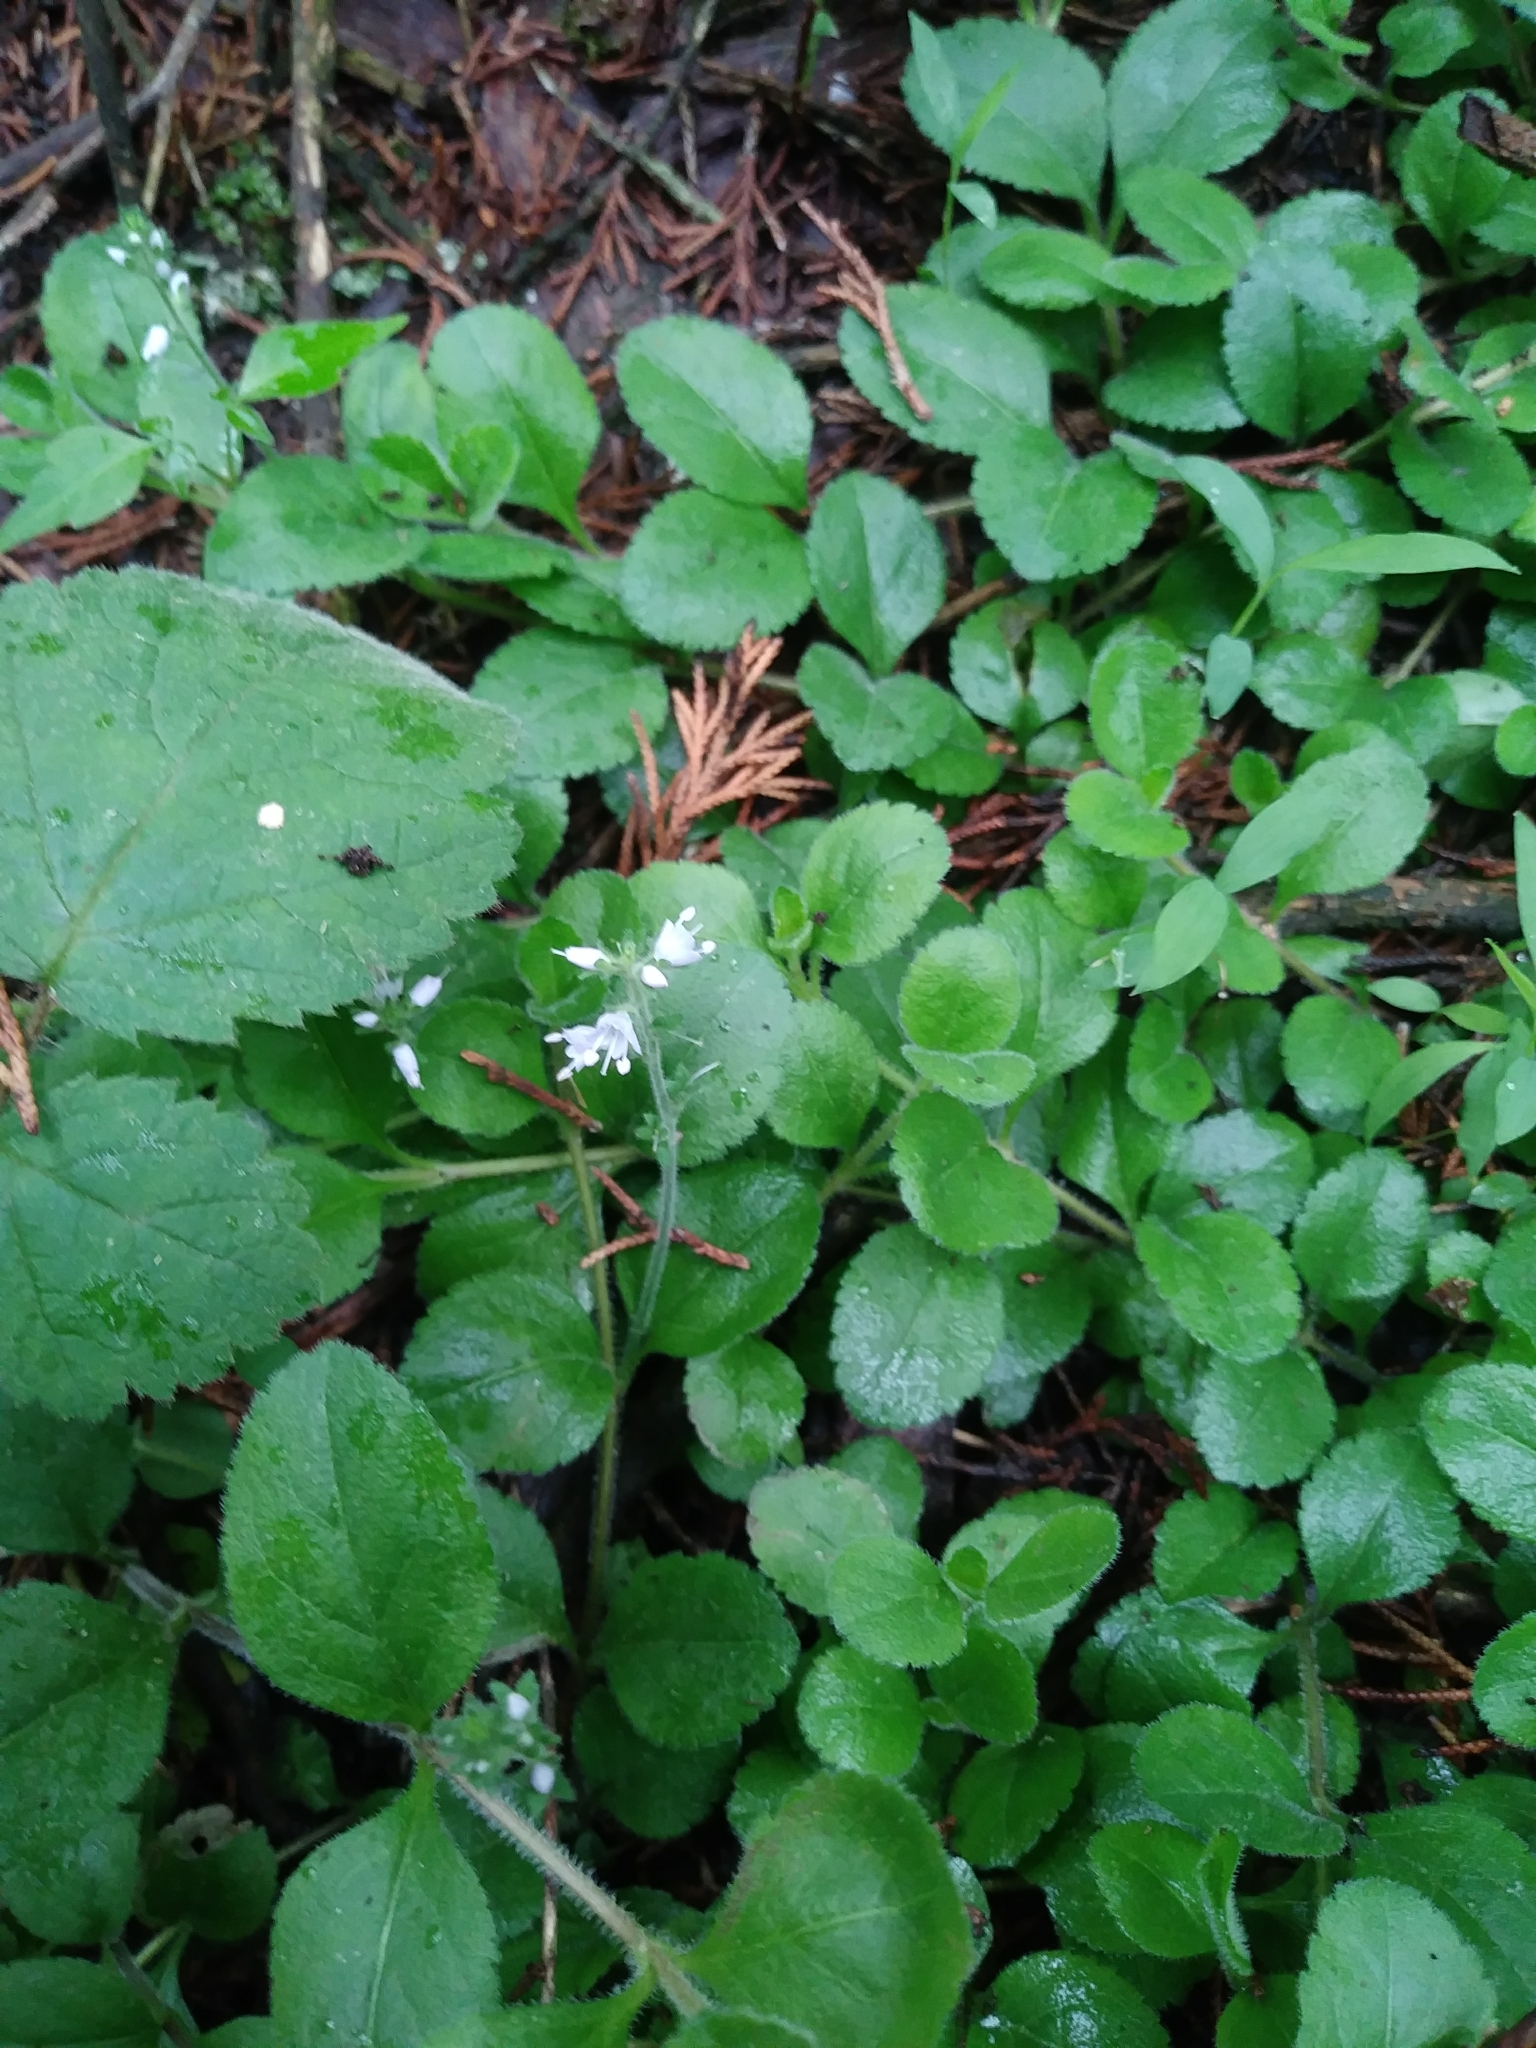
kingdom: Plantae
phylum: Tracheophyta
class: Magnoliopsida
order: Lamiales
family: Plantaginaceae
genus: Veronica
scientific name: Veronica officinalis
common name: Common speedwell
